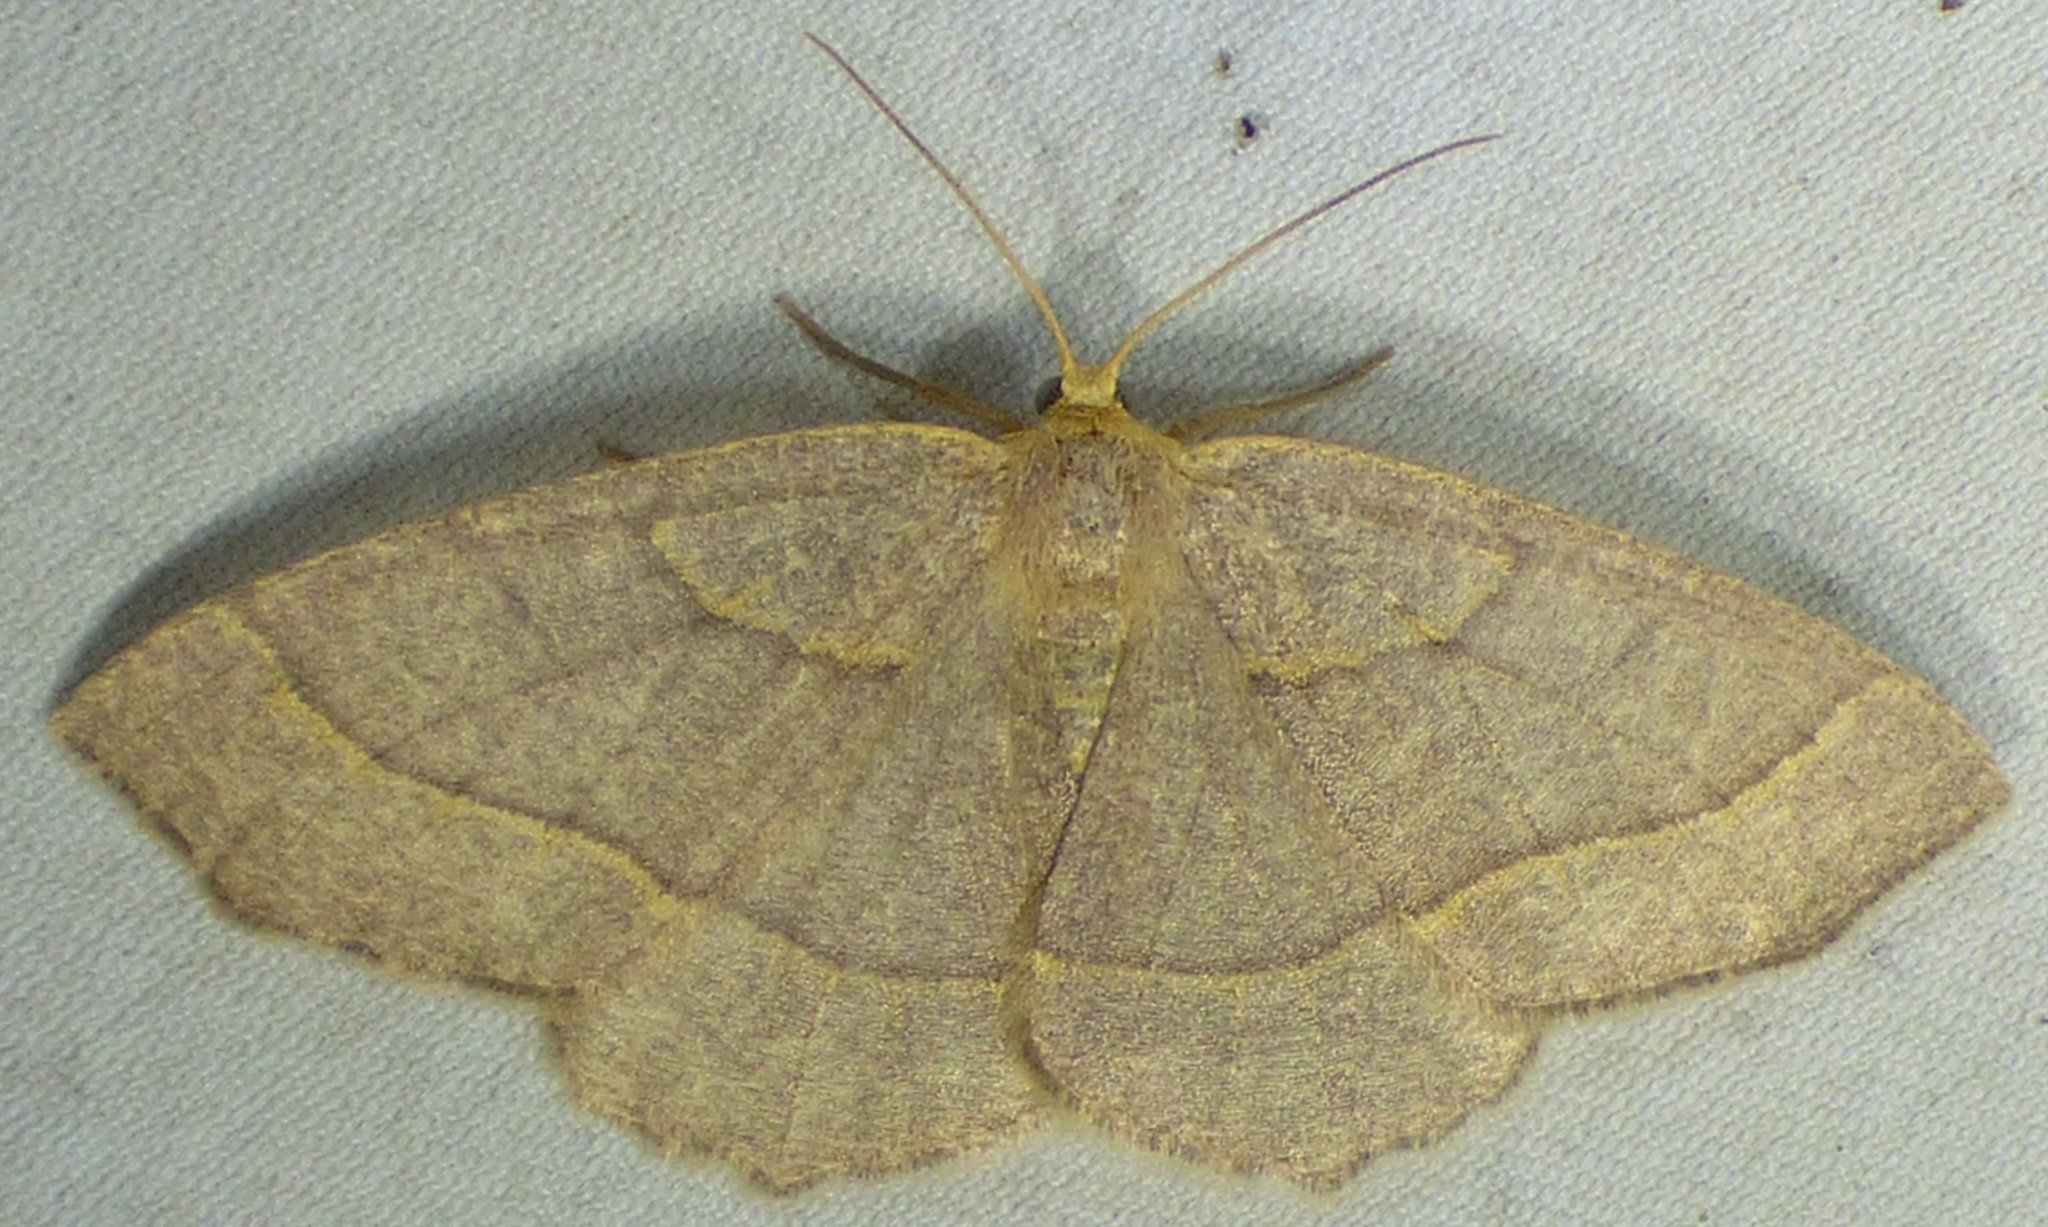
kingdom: Animalia
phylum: Arthropoda
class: Insecta
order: Lepidoptera
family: Geometridae
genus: Lambdina
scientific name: Lambdina fervidaria
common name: Curve-lined looper moth
